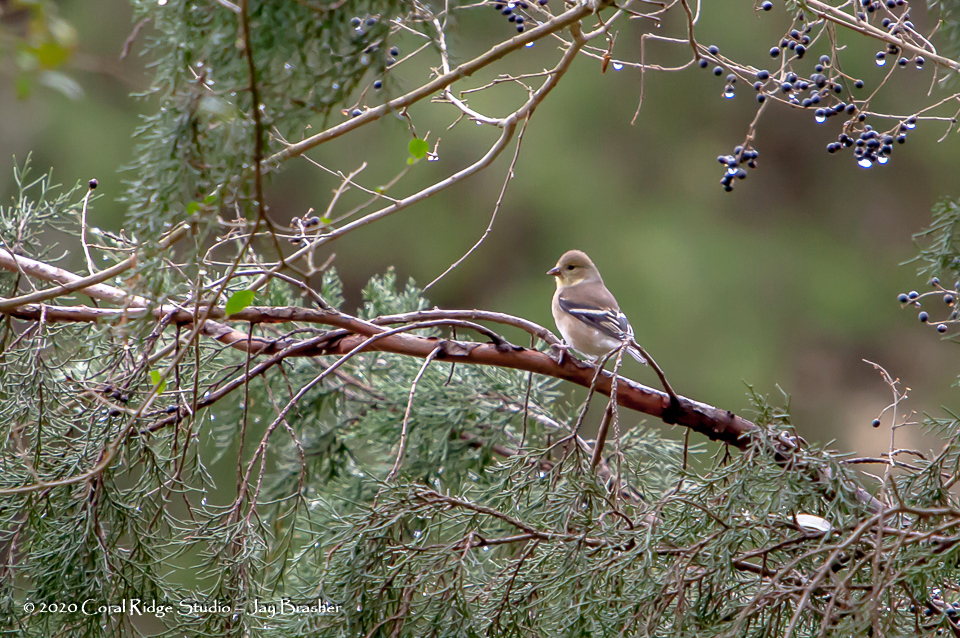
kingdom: Animalia
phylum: Chordata
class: Aves
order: Passeriformes
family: Fringillidae
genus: Spinus
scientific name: Spinus tristis
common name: American goldfinch
